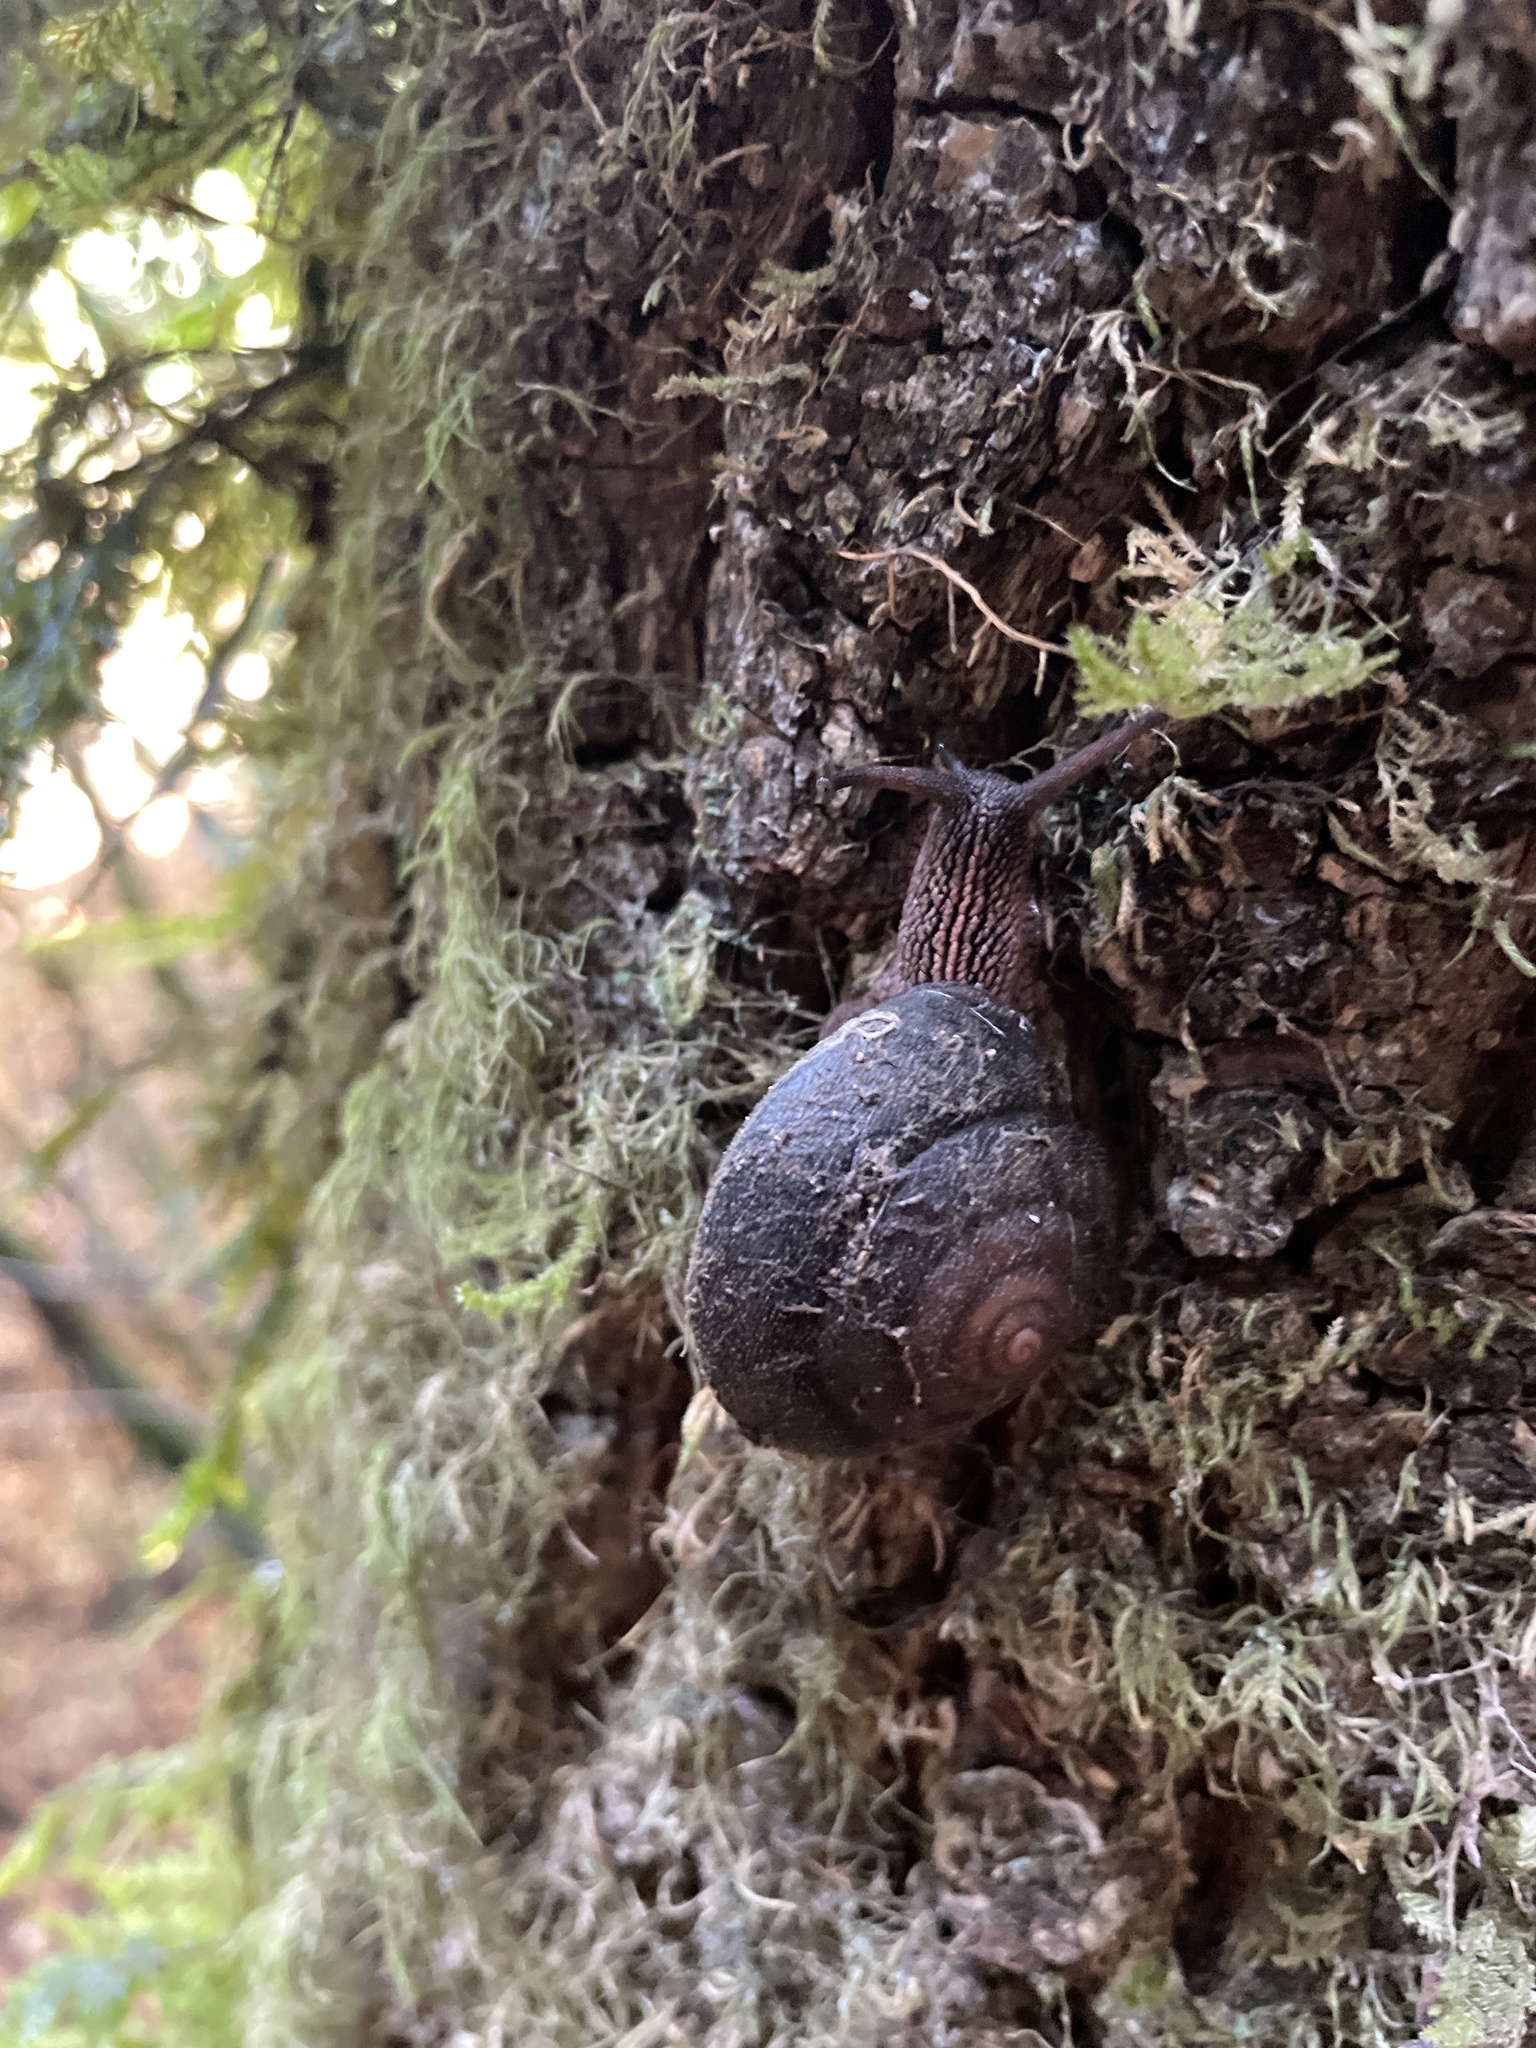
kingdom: Animalia
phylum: Mollusca
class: Gastropoda
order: Stylommatophora
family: Xanthonychidae
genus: Monadenia
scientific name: Monadenia infumata
